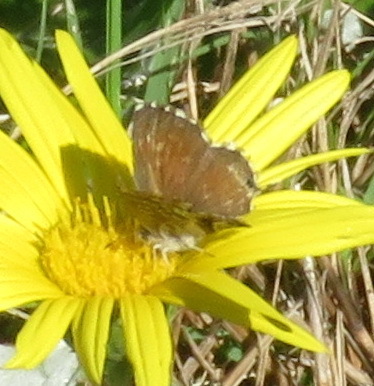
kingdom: Animalia
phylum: Arthropoda
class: Insecta
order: Lepidoptera
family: Lycaenidae
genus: Cacyreus
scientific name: Cacyreus marshalli
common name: Geranium bronze
